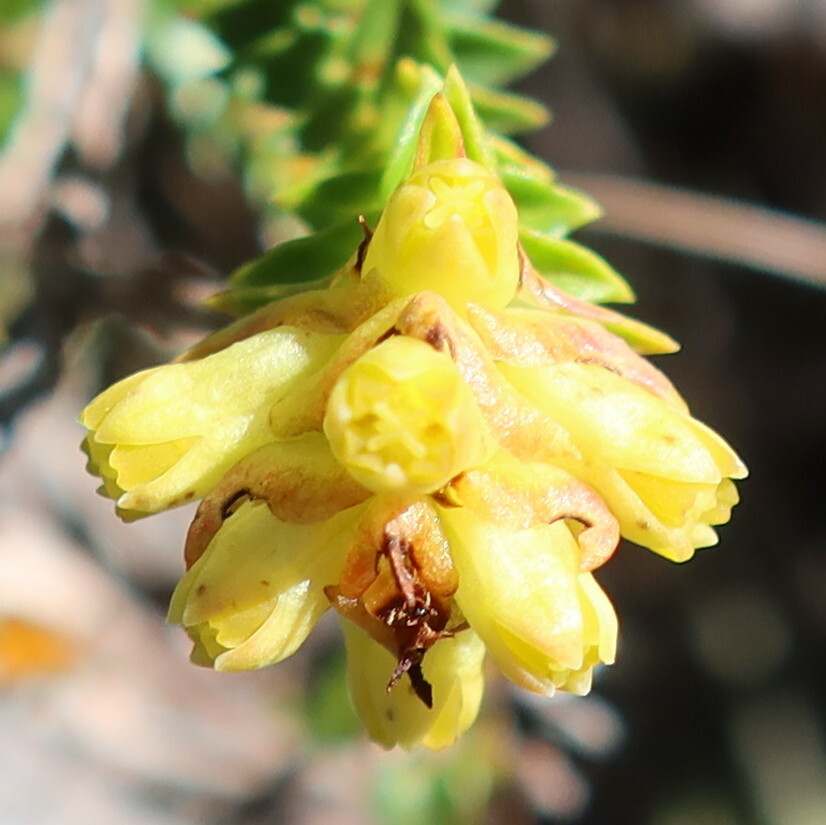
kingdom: Plantae
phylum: Tracheophyta
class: Magnoliopsida
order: Myrtales
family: Penaeaceae
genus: Penaea
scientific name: Penaea mucronata
